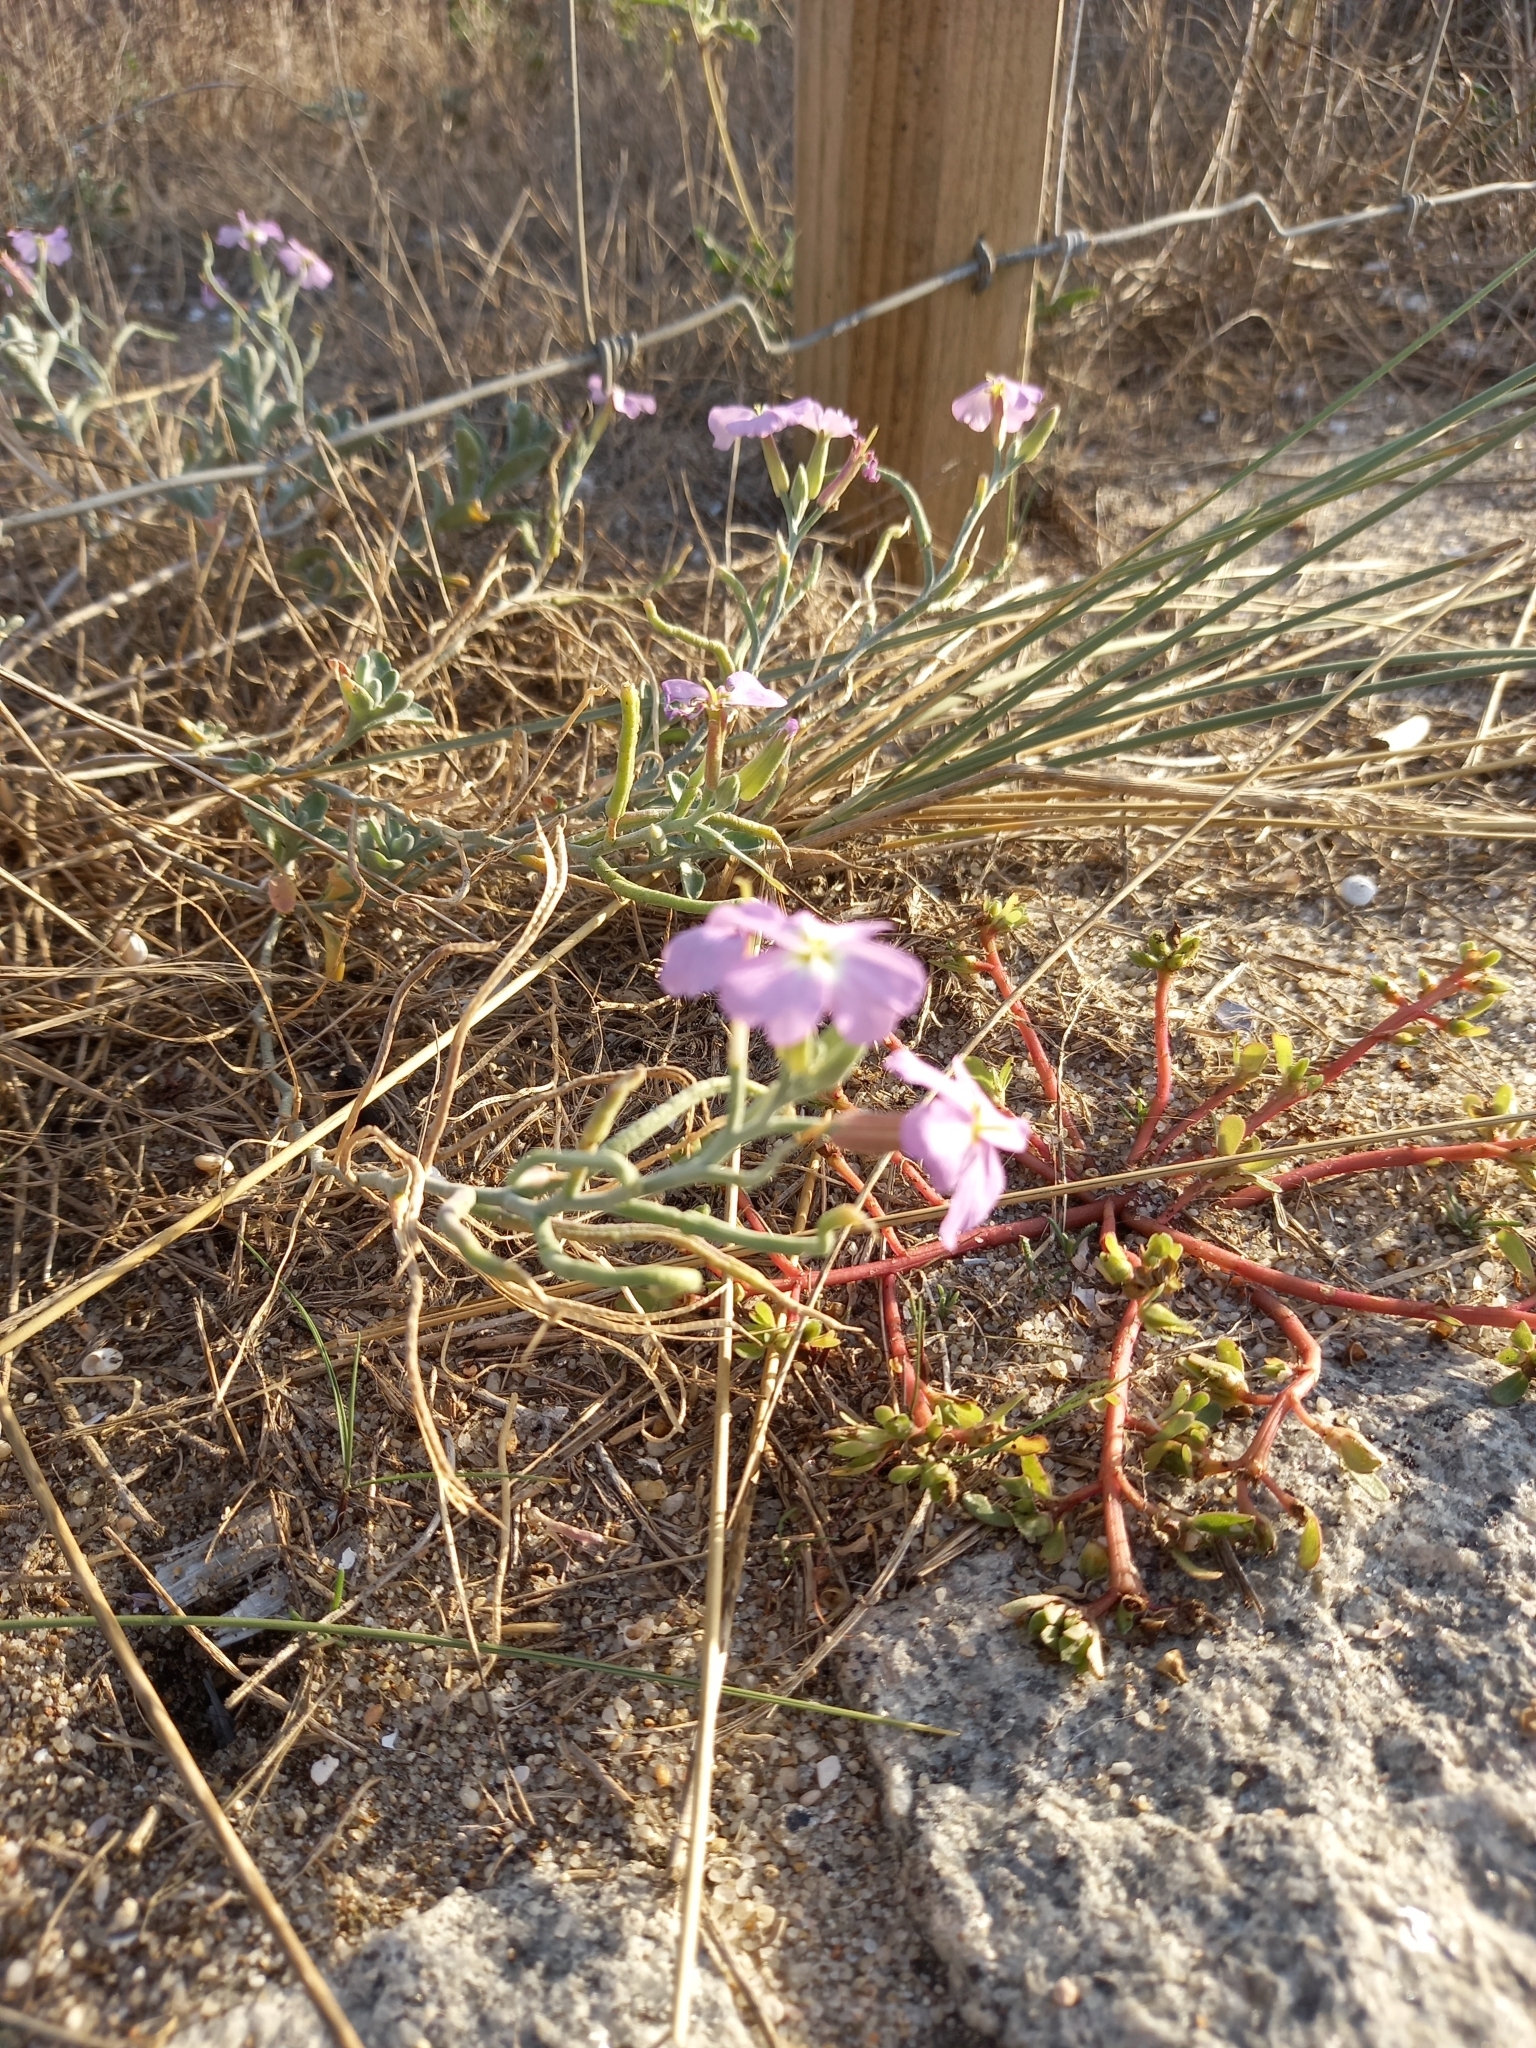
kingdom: Plantae
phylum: Tracheophyta
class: Magnoliopsida
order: Brassicales
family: Brassicaceae
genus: Marcuskochia
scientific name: Marcuskochia littorea
